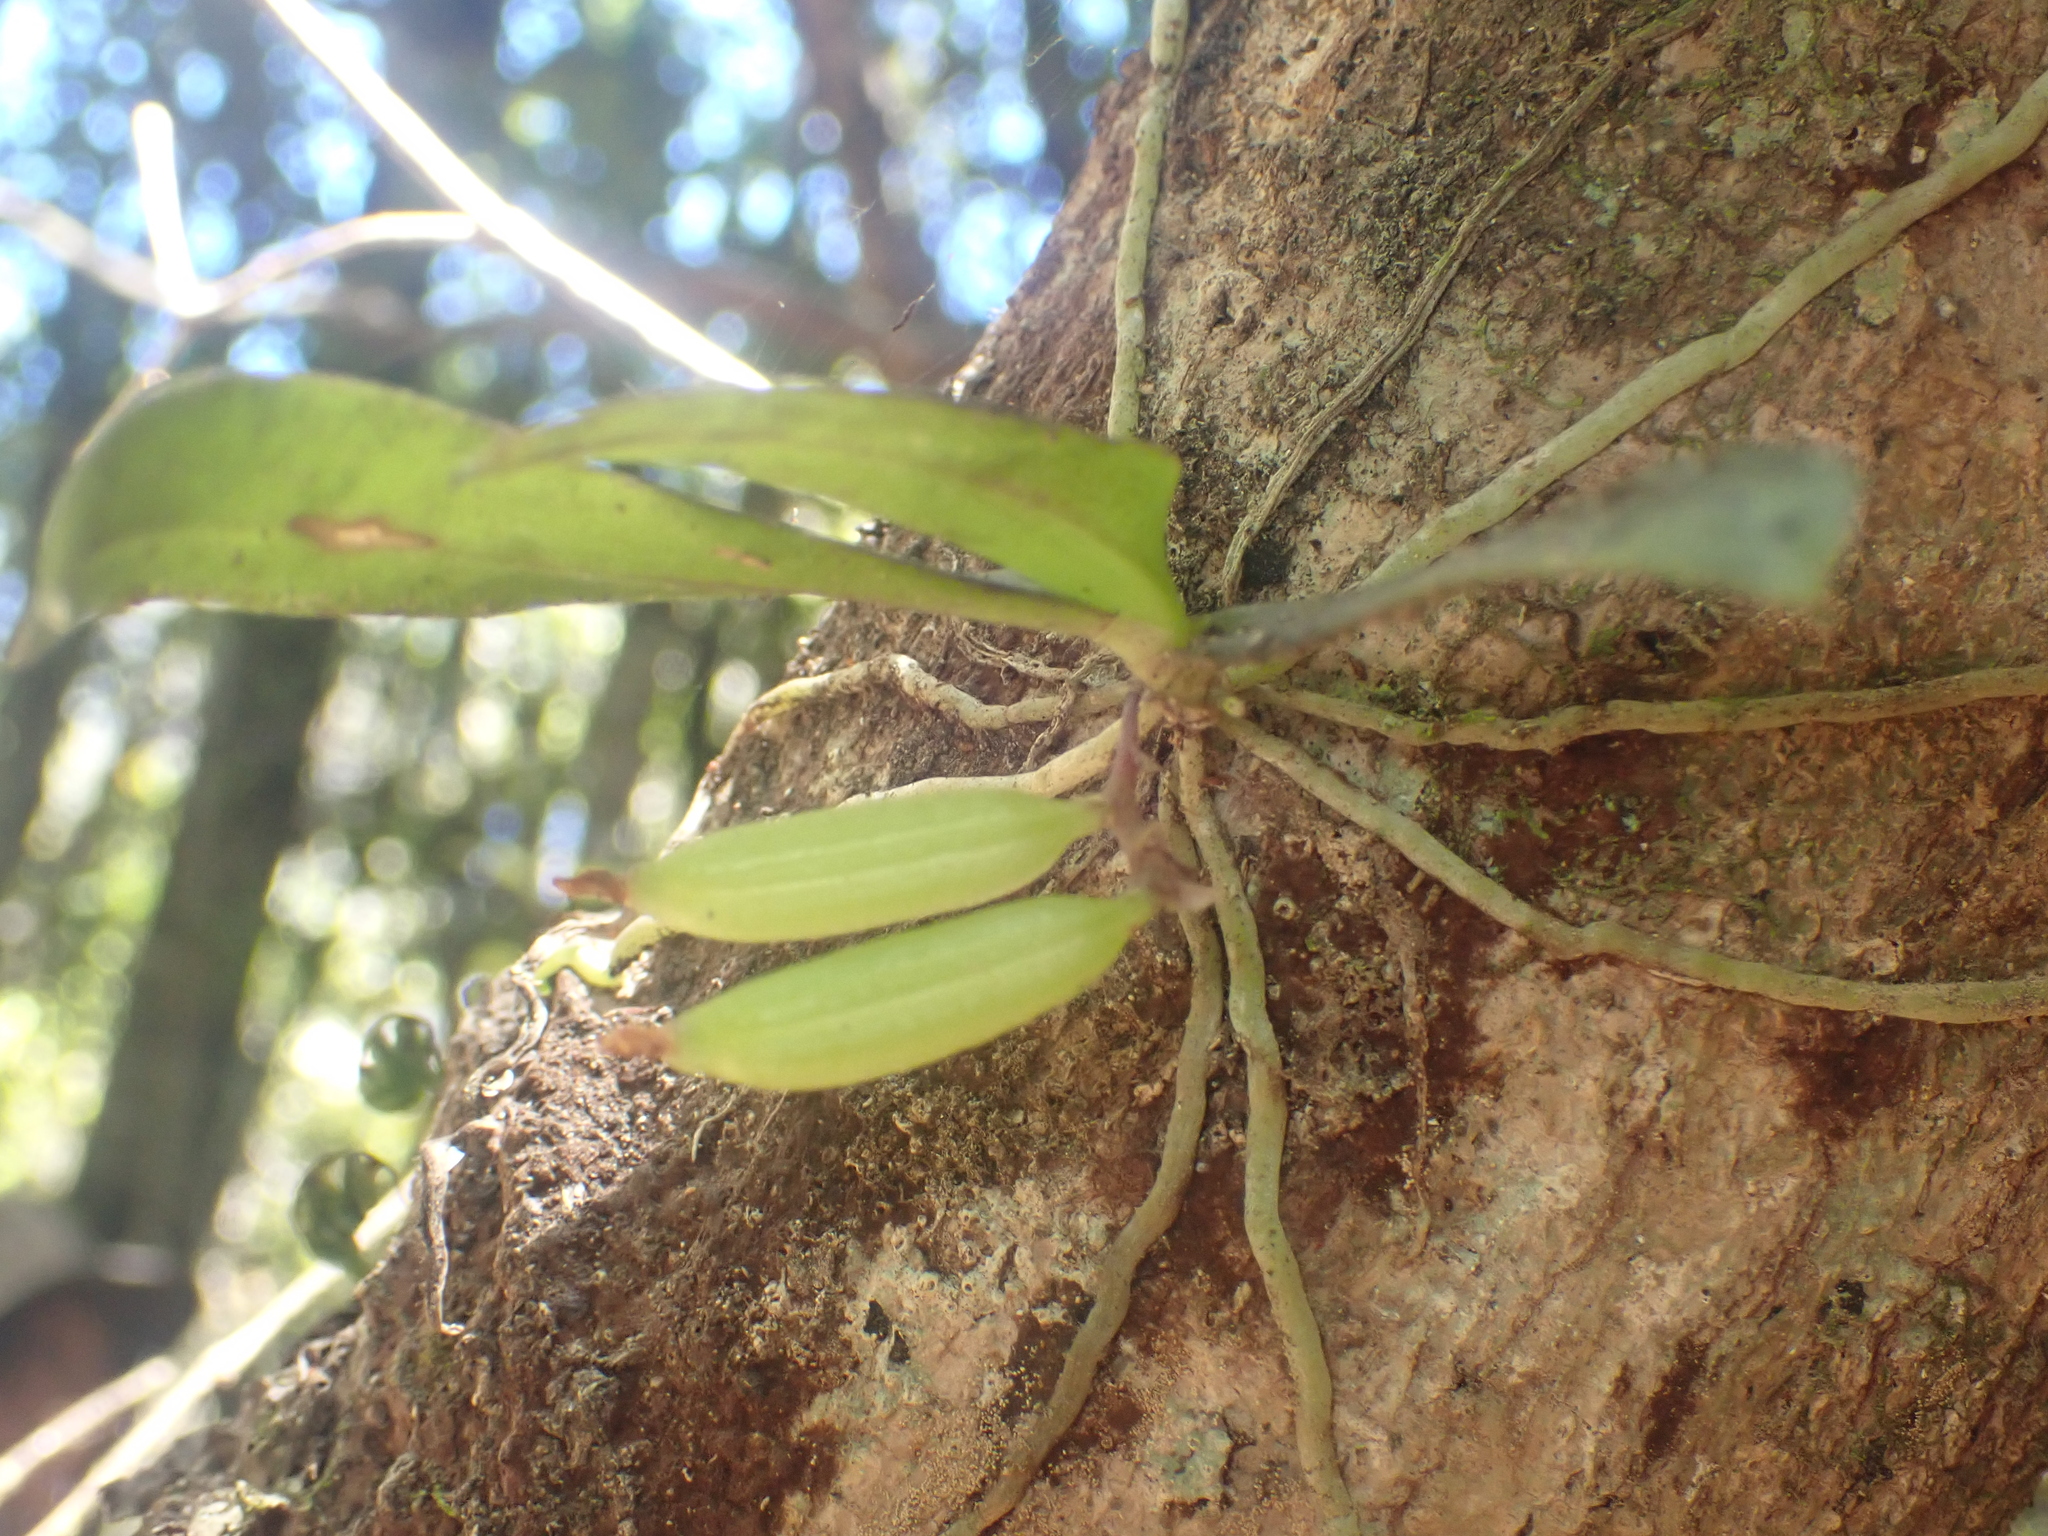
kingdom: Plantae
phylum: Tracheophyta
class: Liliopsida
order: Asparagales
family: Orchidaceae
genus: Drymoanthus
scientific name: Drymoanthus adversus
